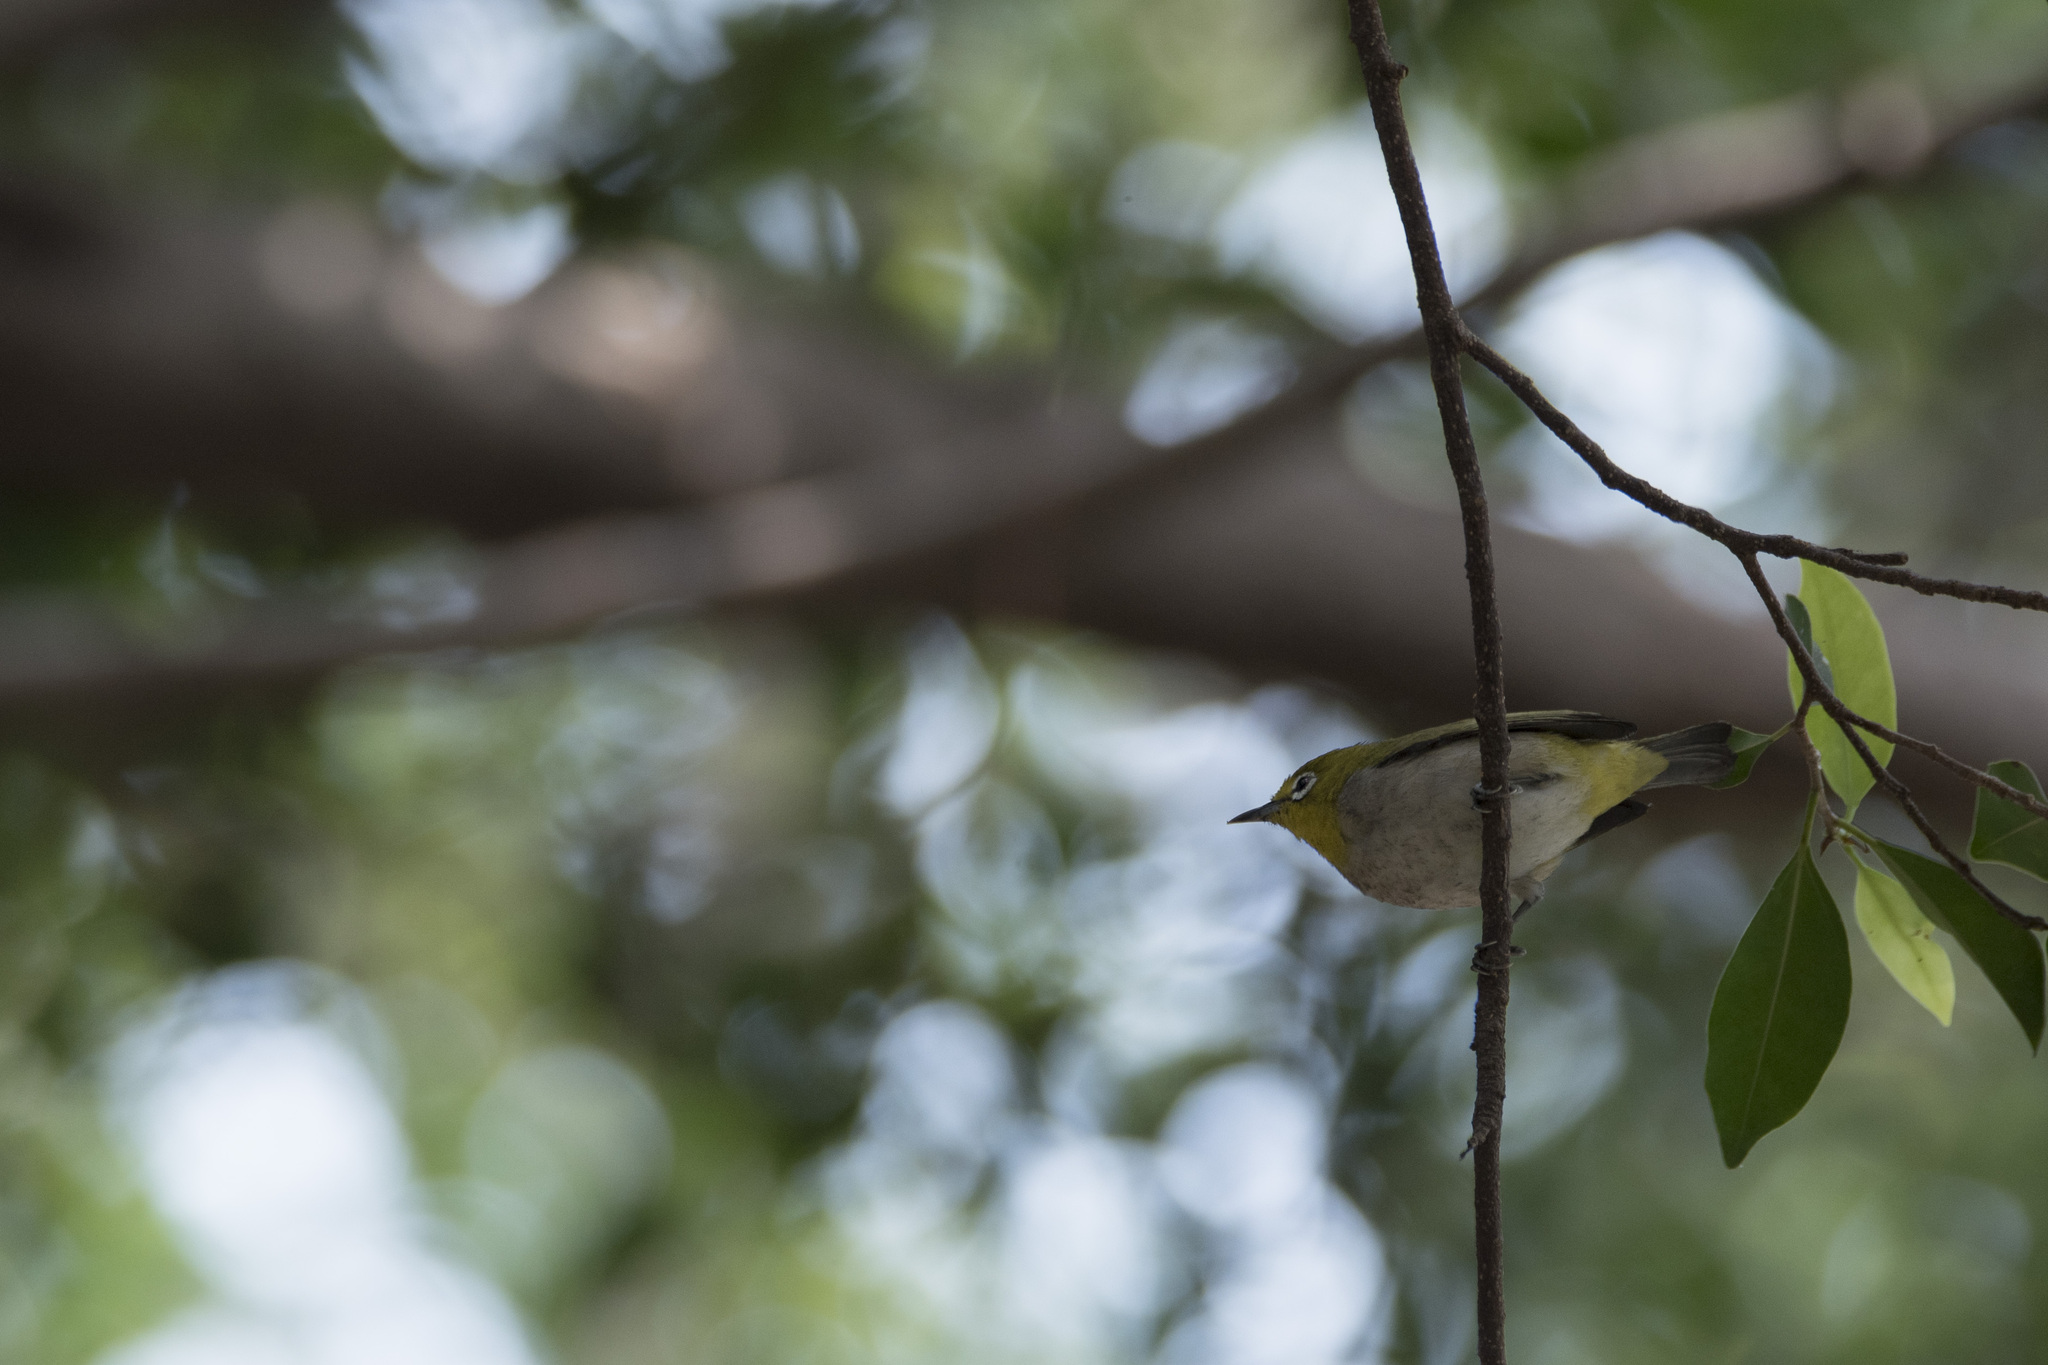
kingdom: Animalia
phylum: Chordata
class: Aves
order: Passeriformes
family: Zosteropidae
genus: Zosterops
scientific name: Zosterops simplex
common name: Swinhoe's white-eye
